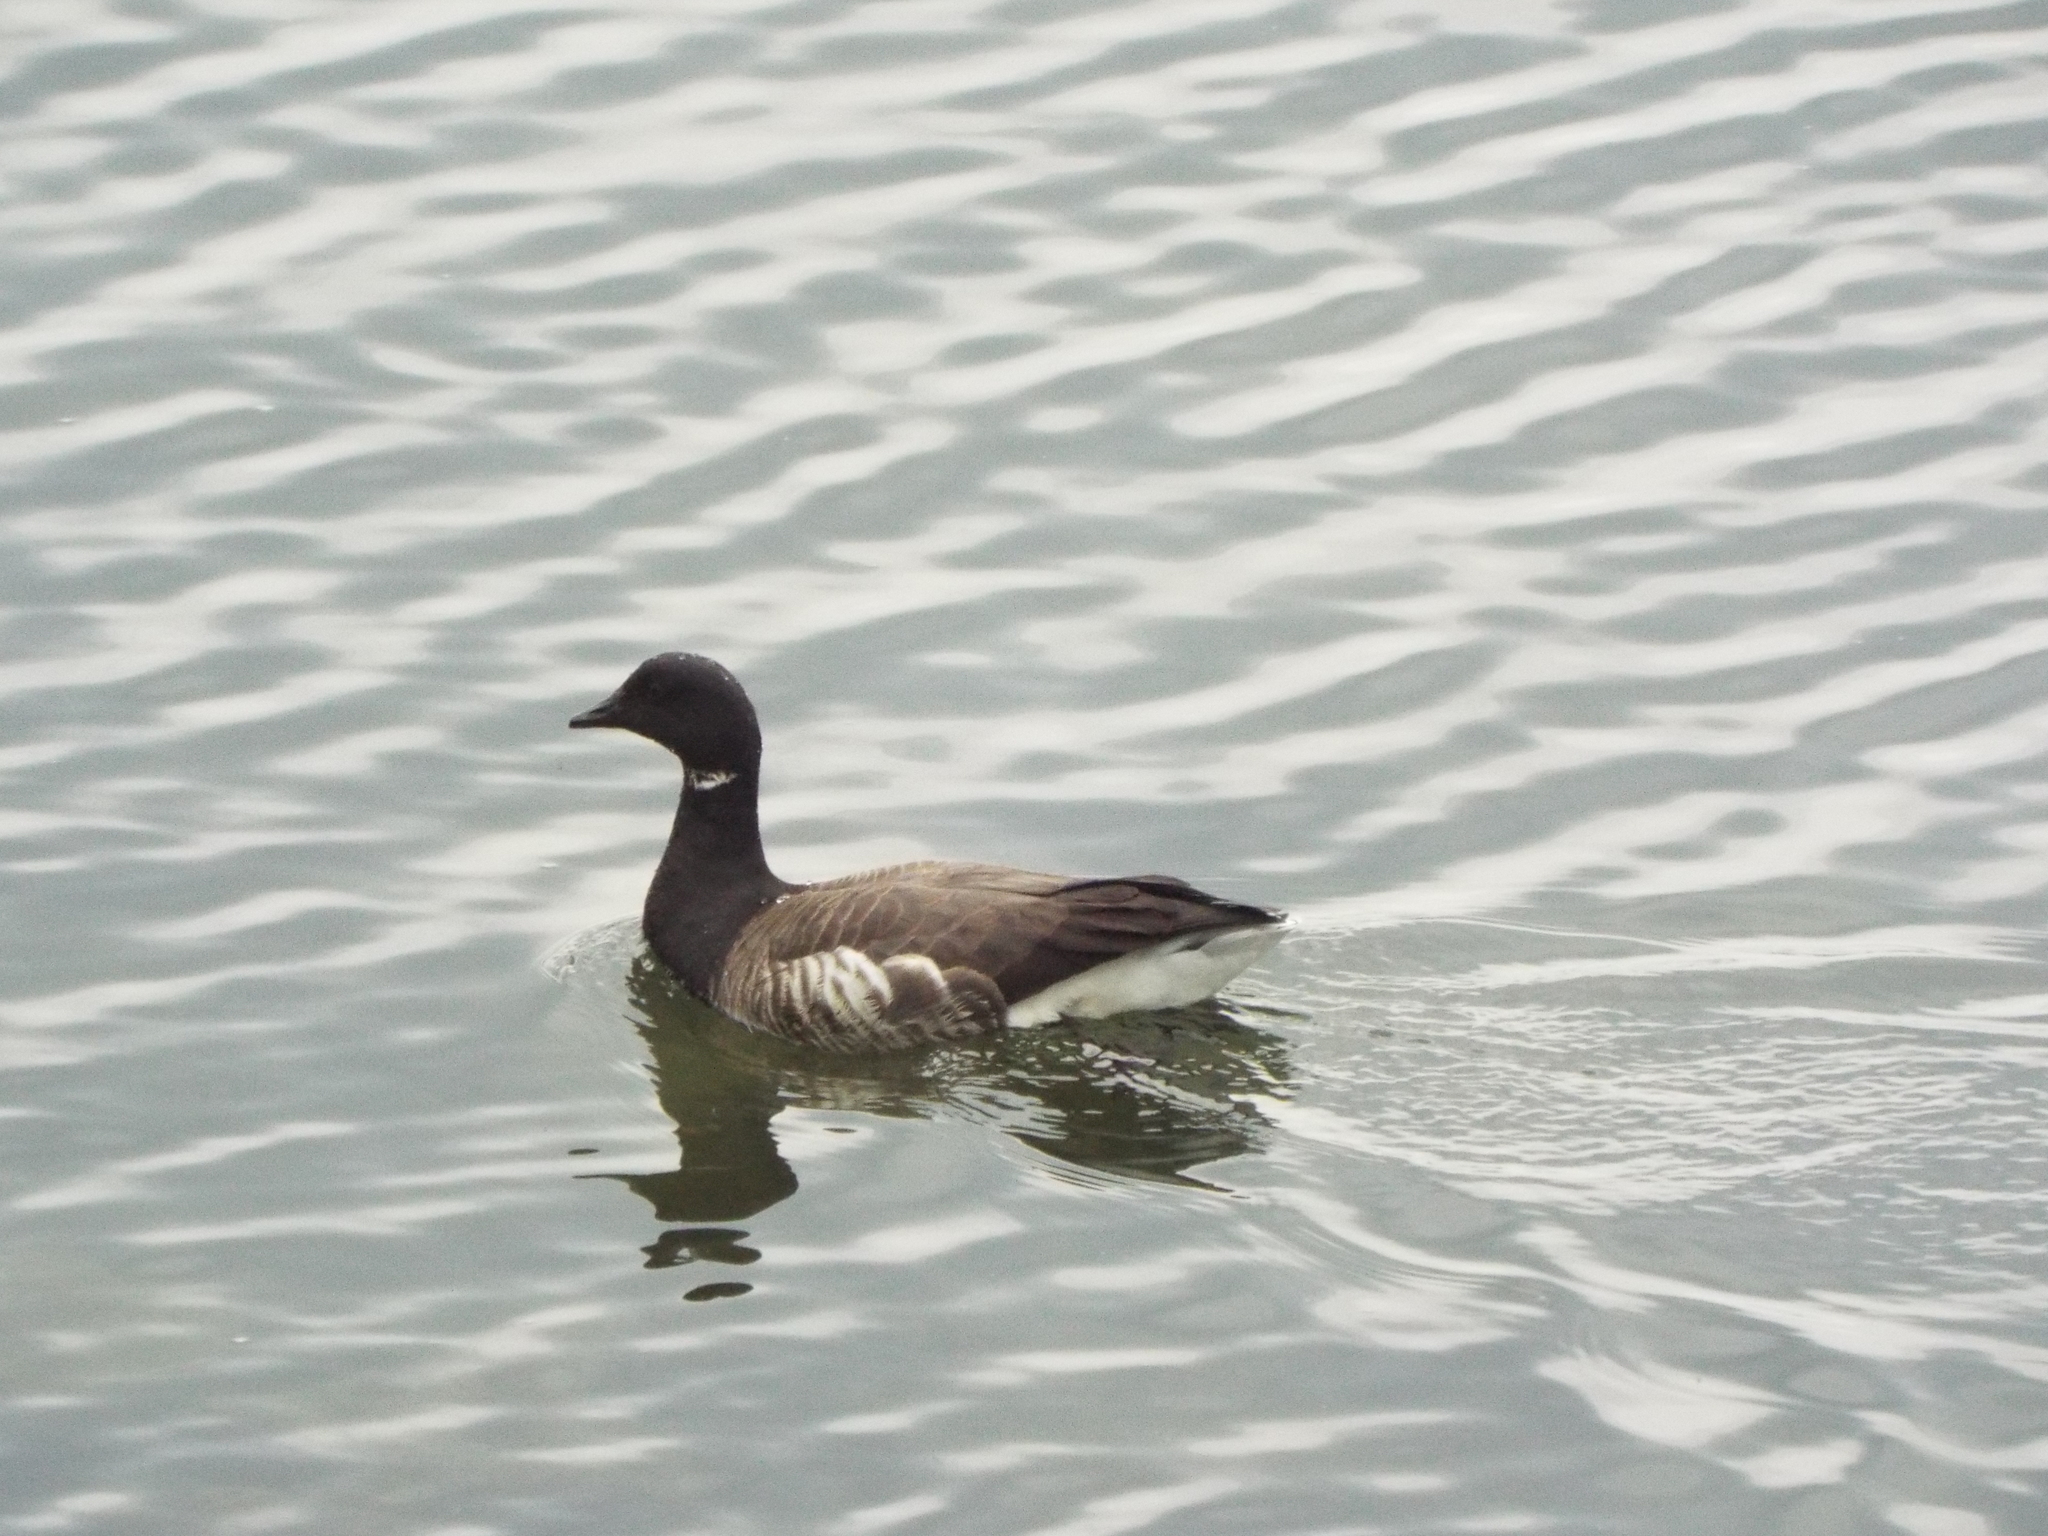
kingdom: Animalia
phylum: Chordata
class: Aves
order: Anseriformes
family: Anatidae
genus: Branta
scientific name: Branta bernicla
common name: Brant goose
